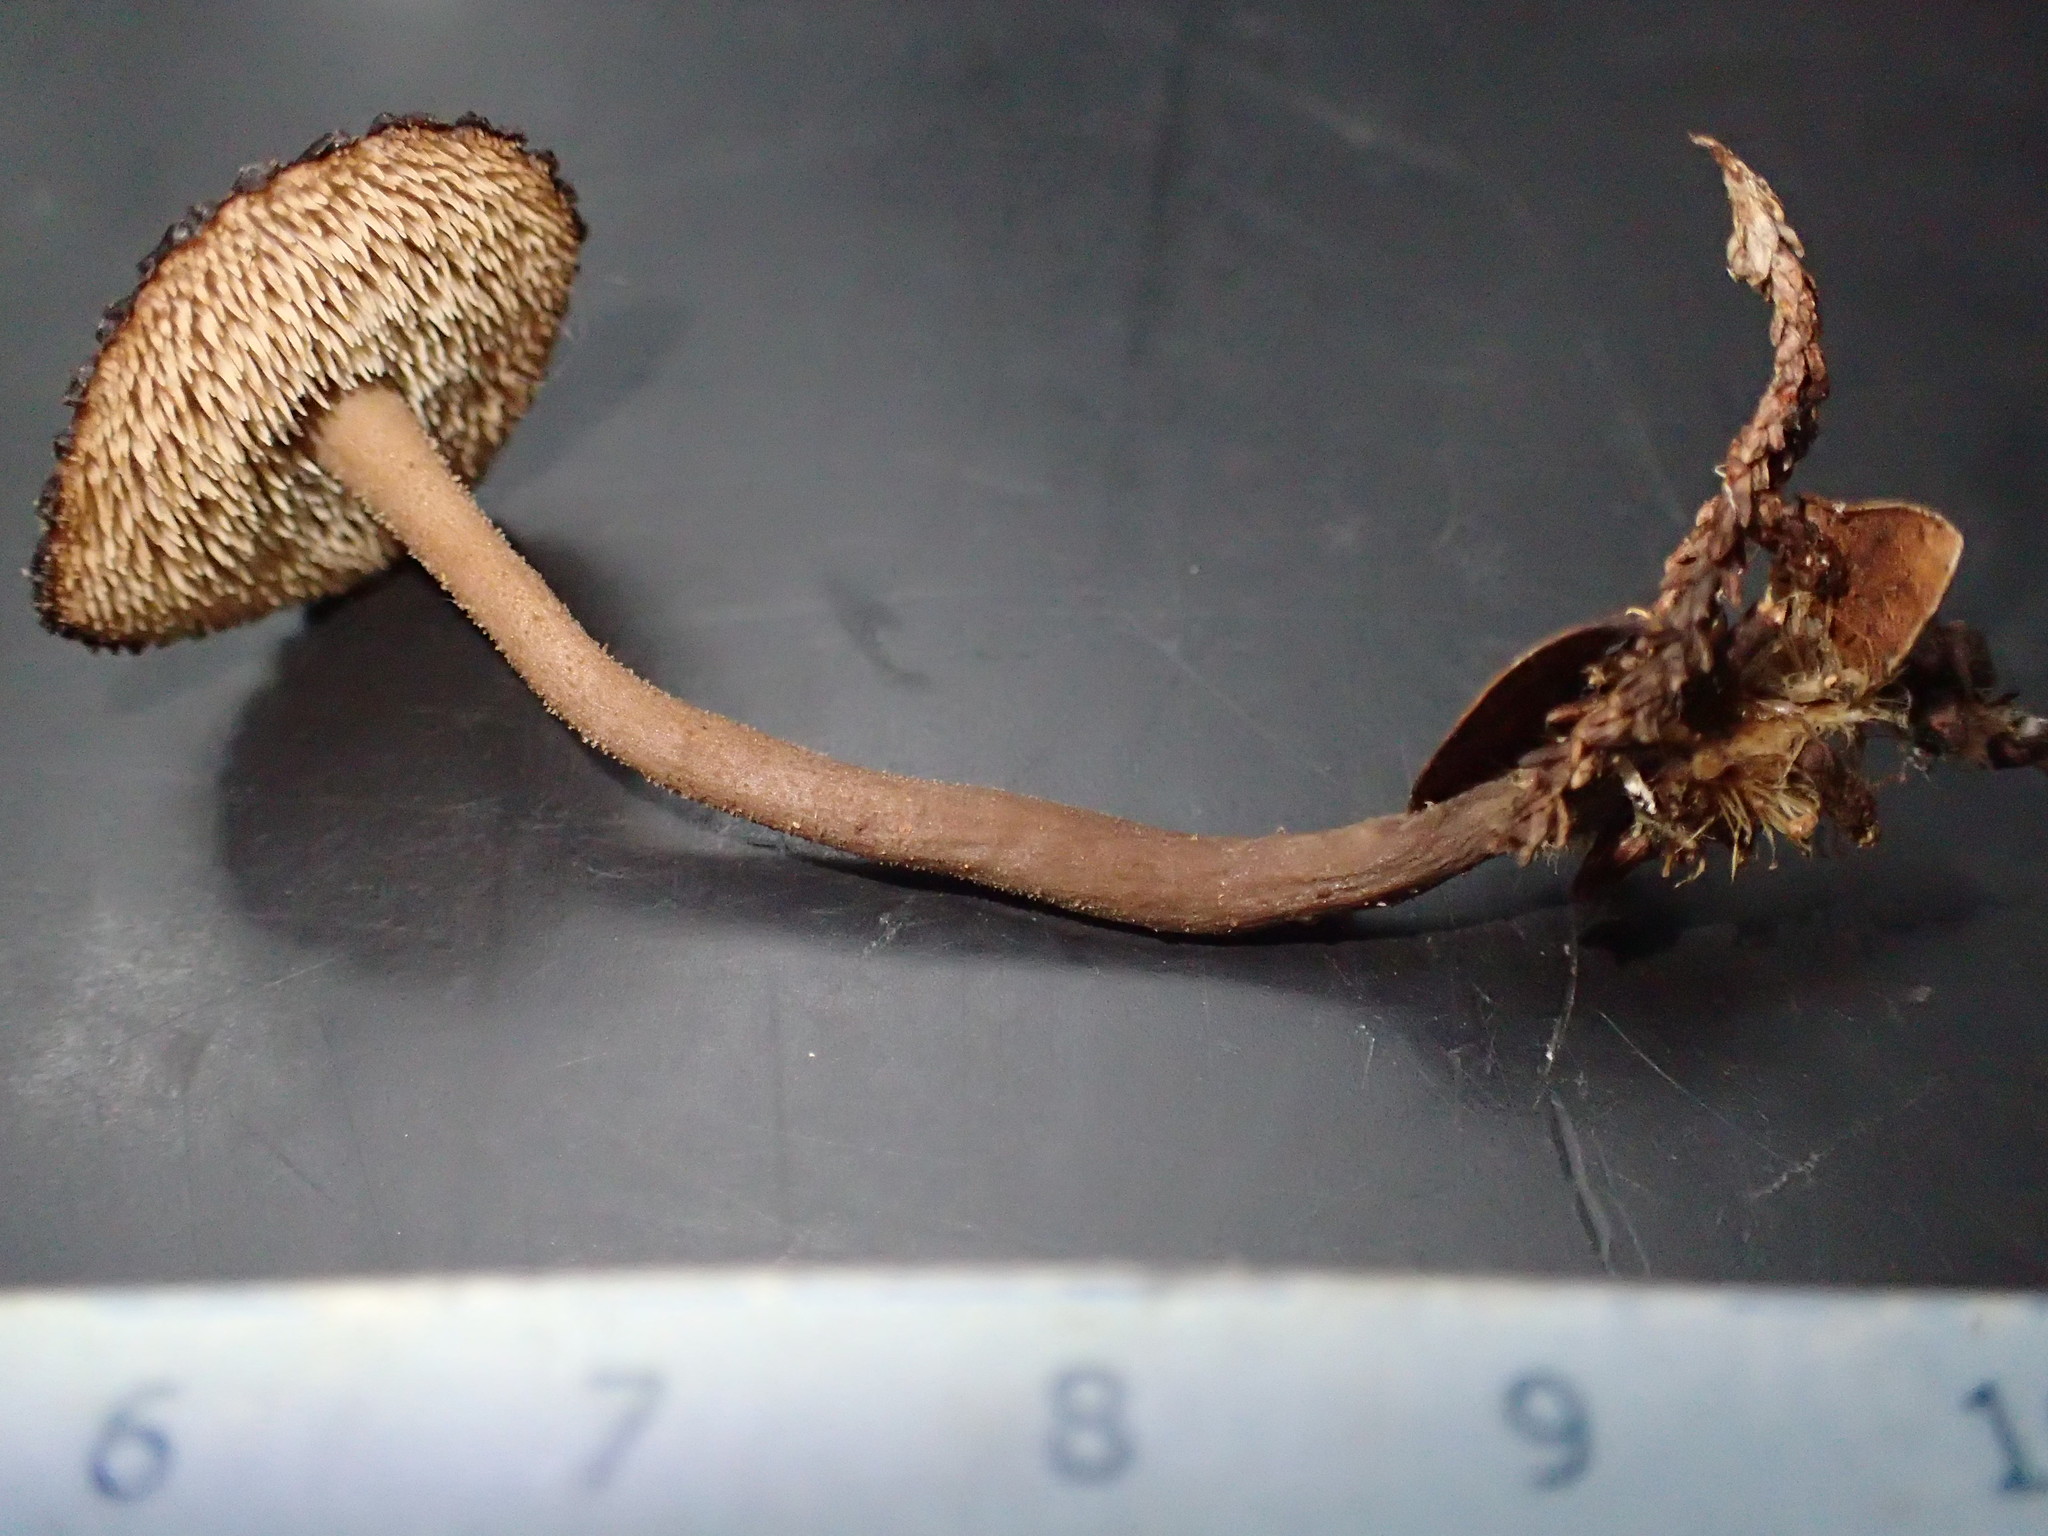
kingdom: Fungi
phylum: Basidiomycota
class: Agaricomycetes
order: Russulales
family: Auriscalpiaceae
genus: Auriscalpium
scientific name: Auriscalpium umbella
